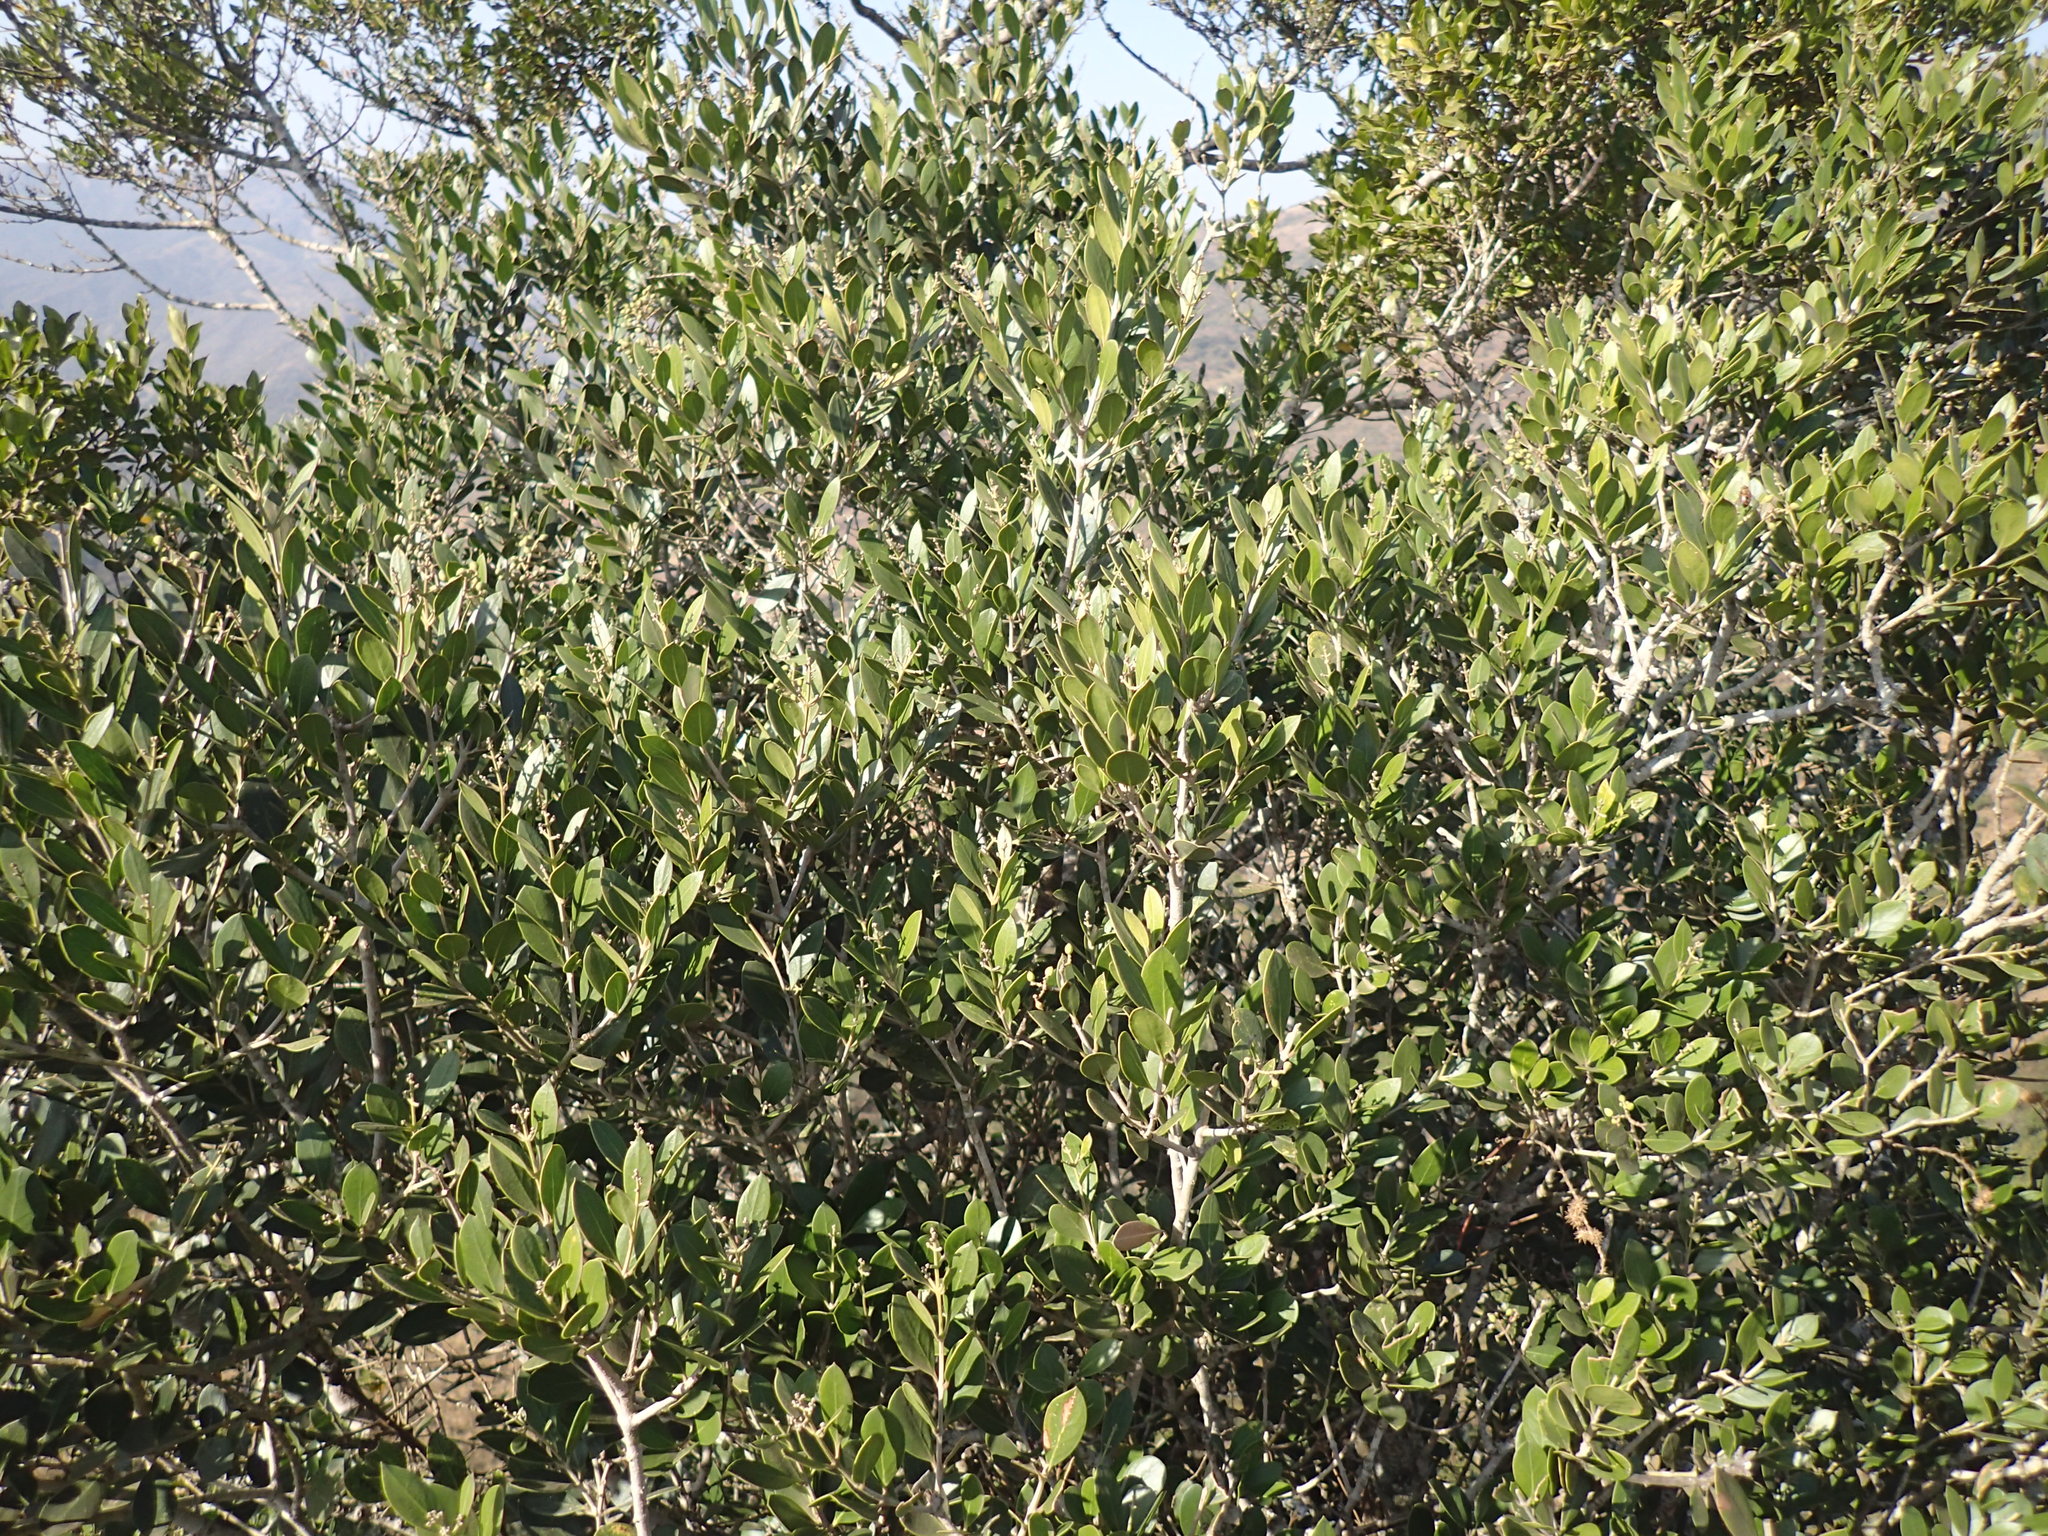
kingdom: Plantae
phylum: Tracheophyta
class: Magnoliopsida
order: Lamiales
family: Oleaceae
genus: Olea
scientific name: Olea capensis
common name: Black ironwood
